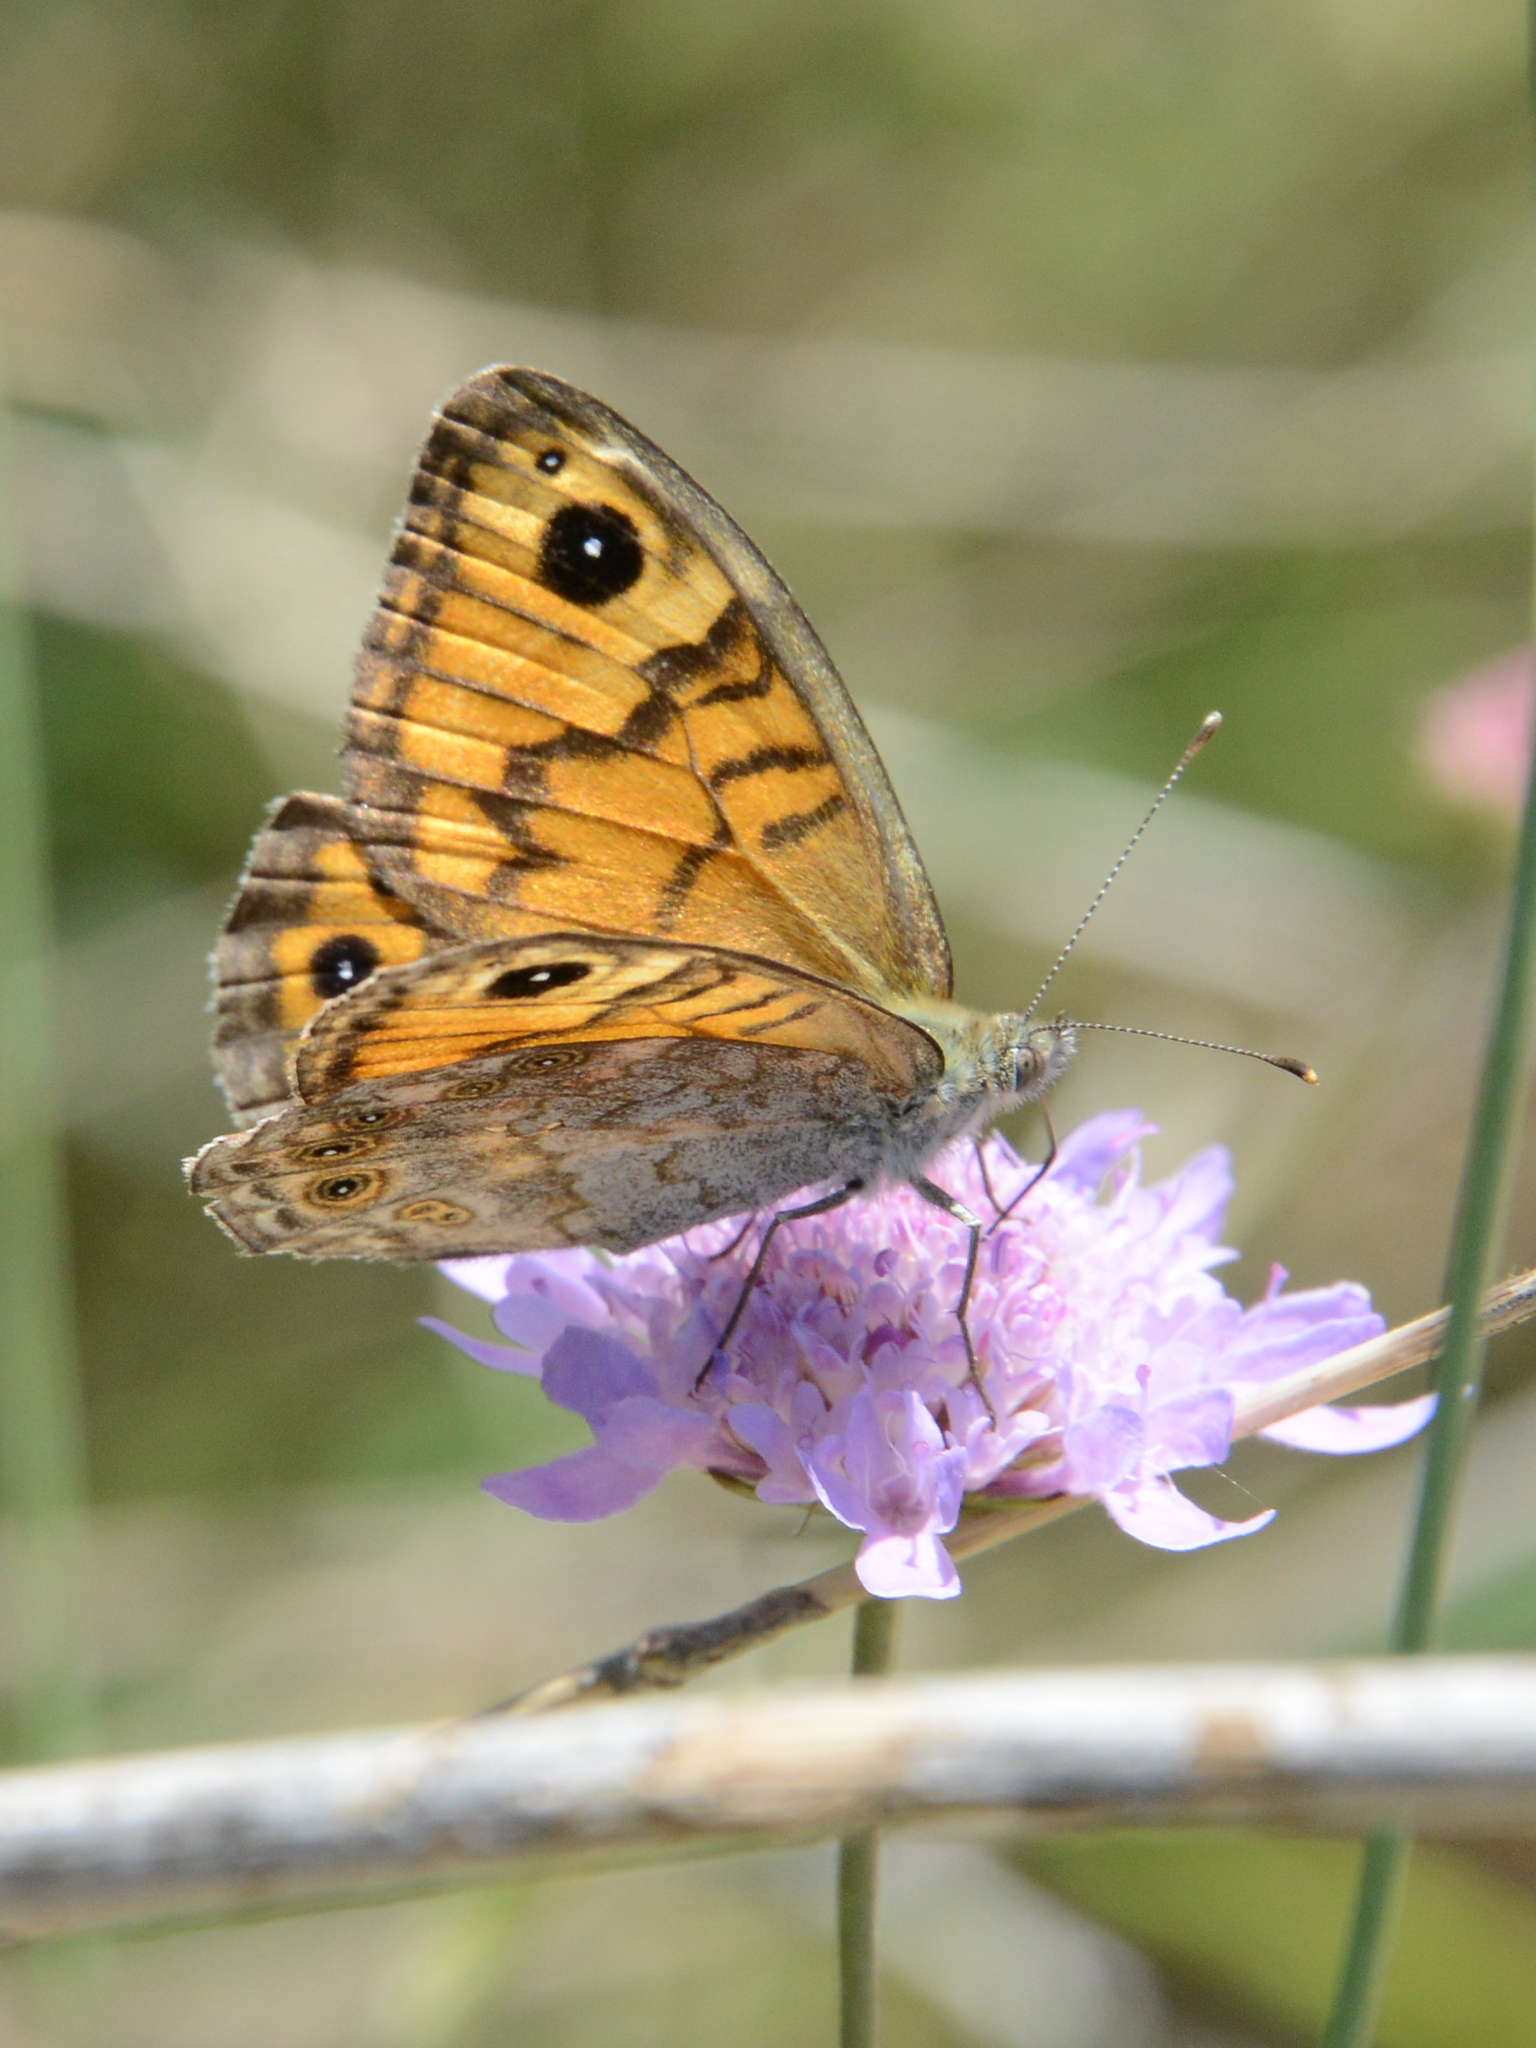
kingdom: Animalia
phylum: Arthropoda
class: Insecta
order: Lepidoptera
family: Nymphalidae
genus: Pararge
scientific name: Pararge Lasiommata megera
